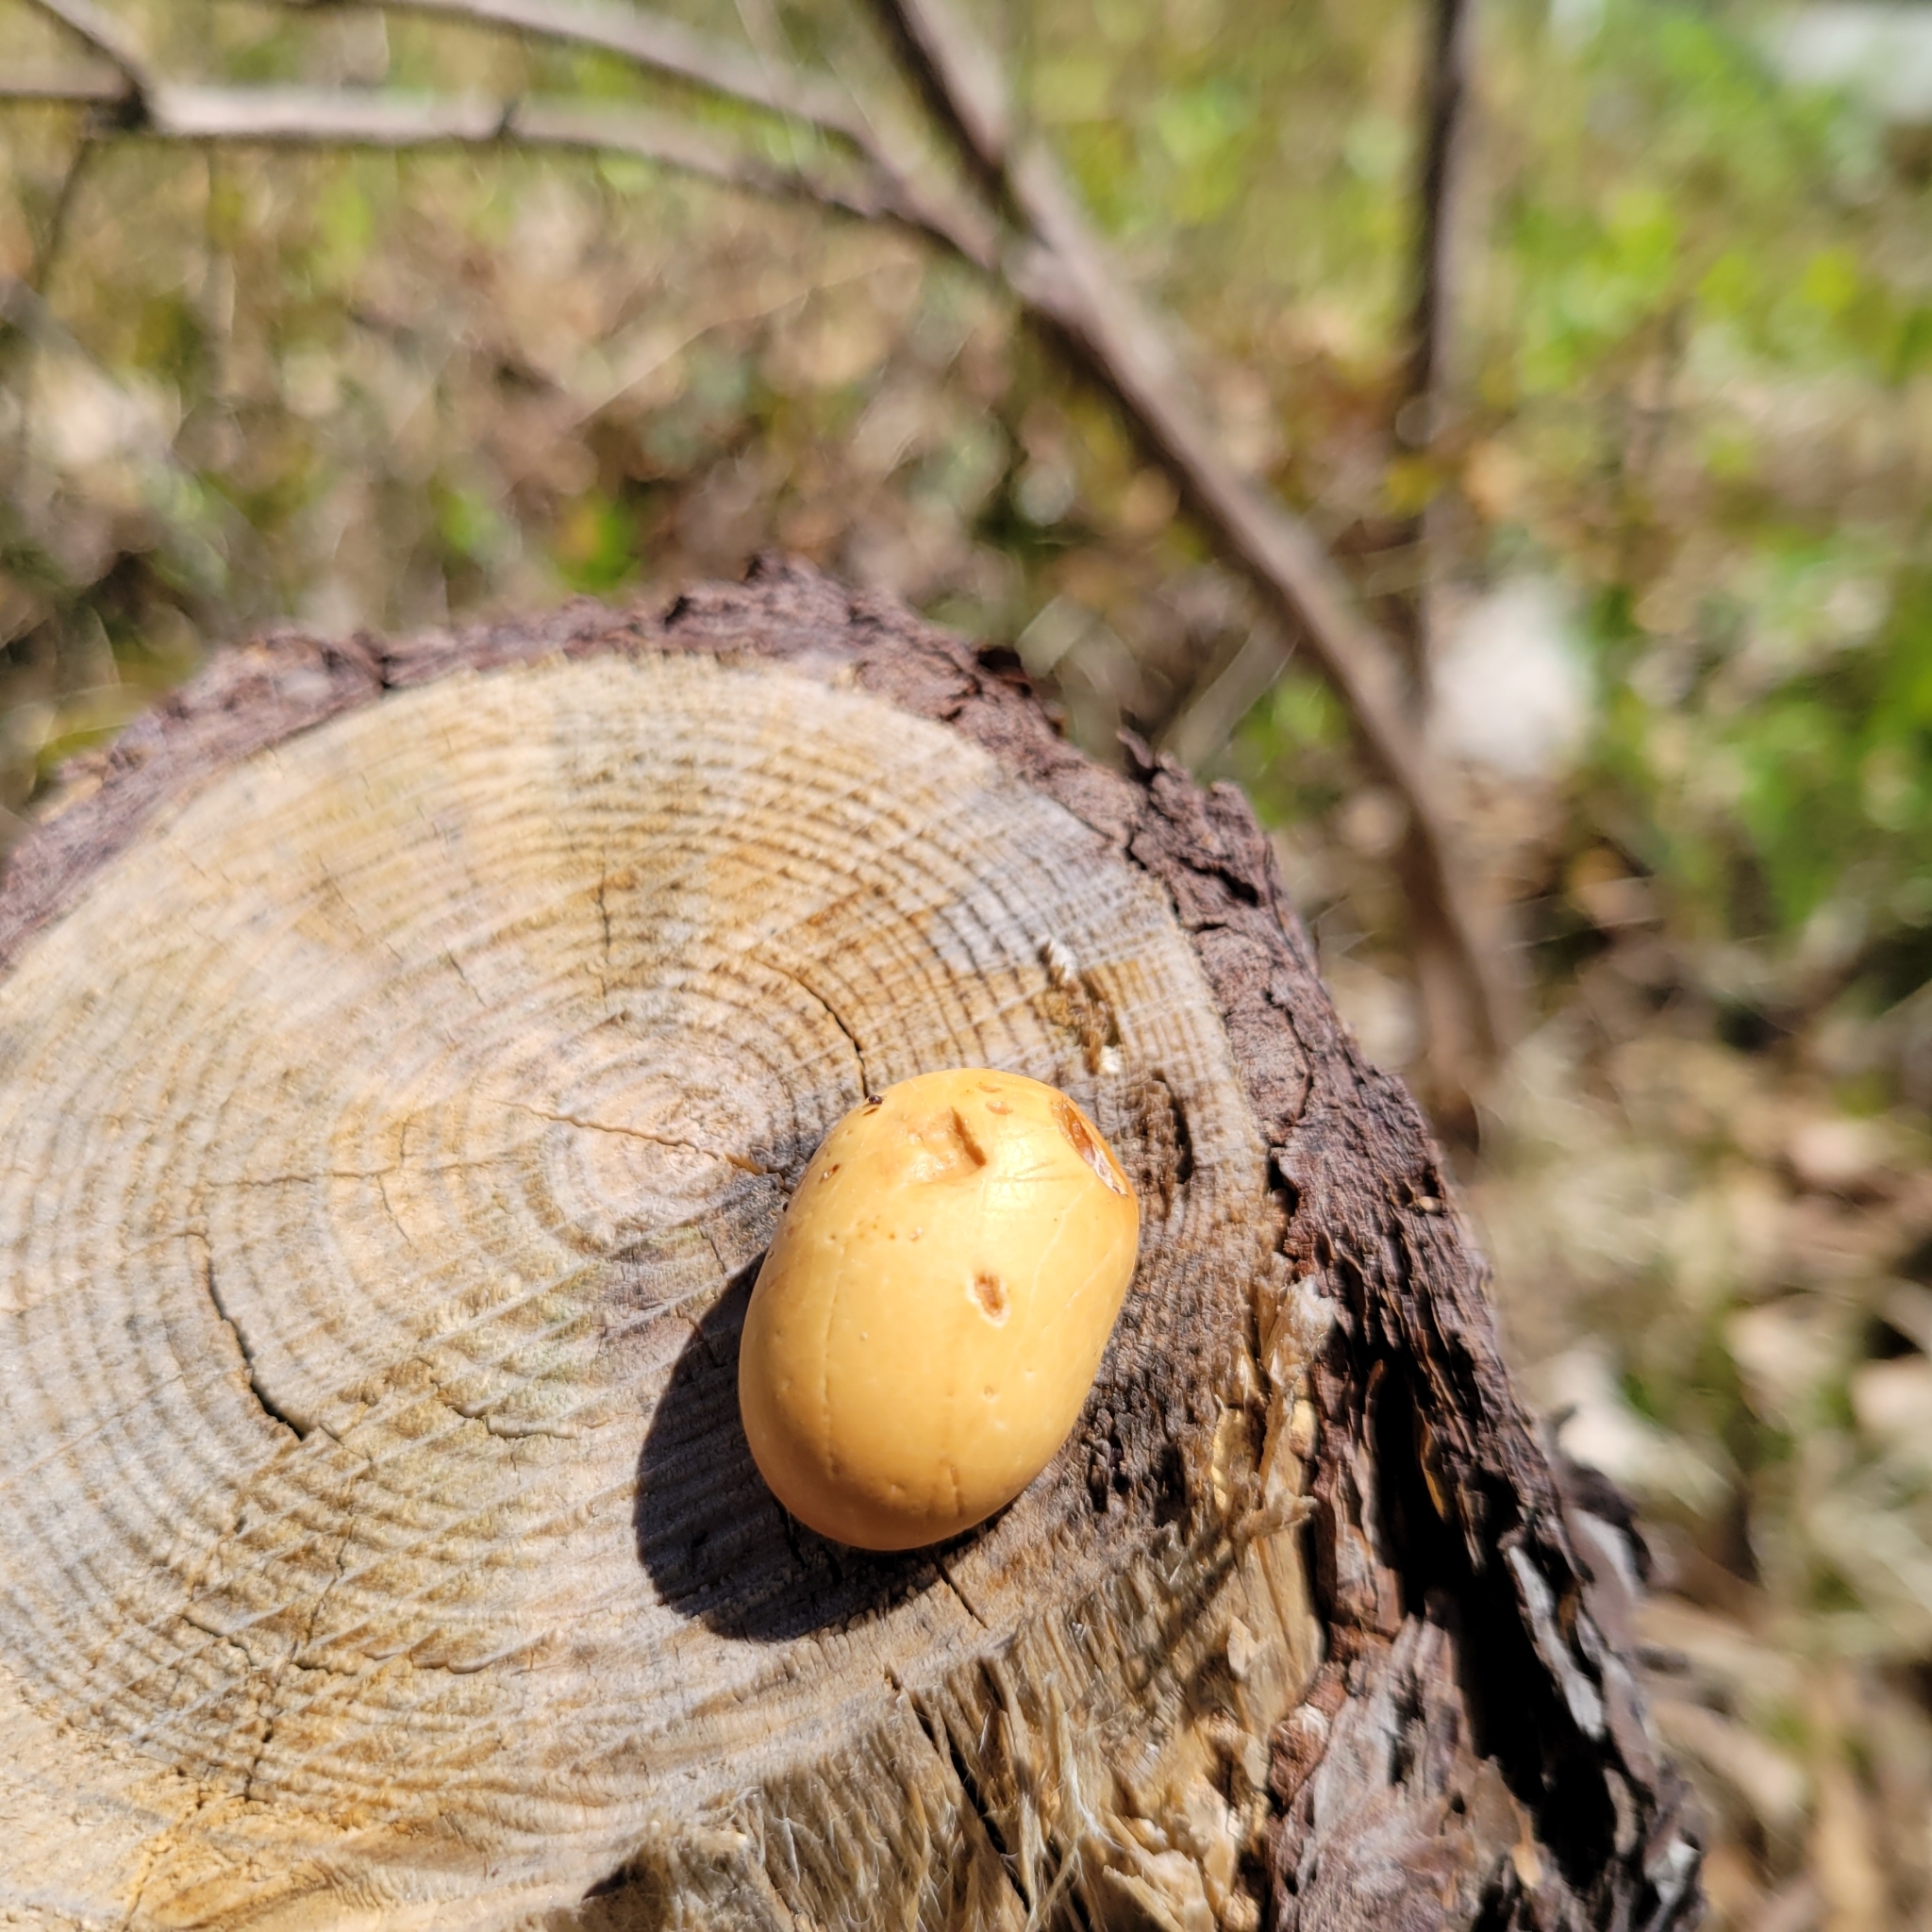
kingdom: Fungi
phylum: Basidiomycota
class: Agaricomycetes
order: Polyporales
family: Polyporaceae
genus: Cryptoporus
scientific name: Cryptoporus volvatus
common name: Veiled polypore
